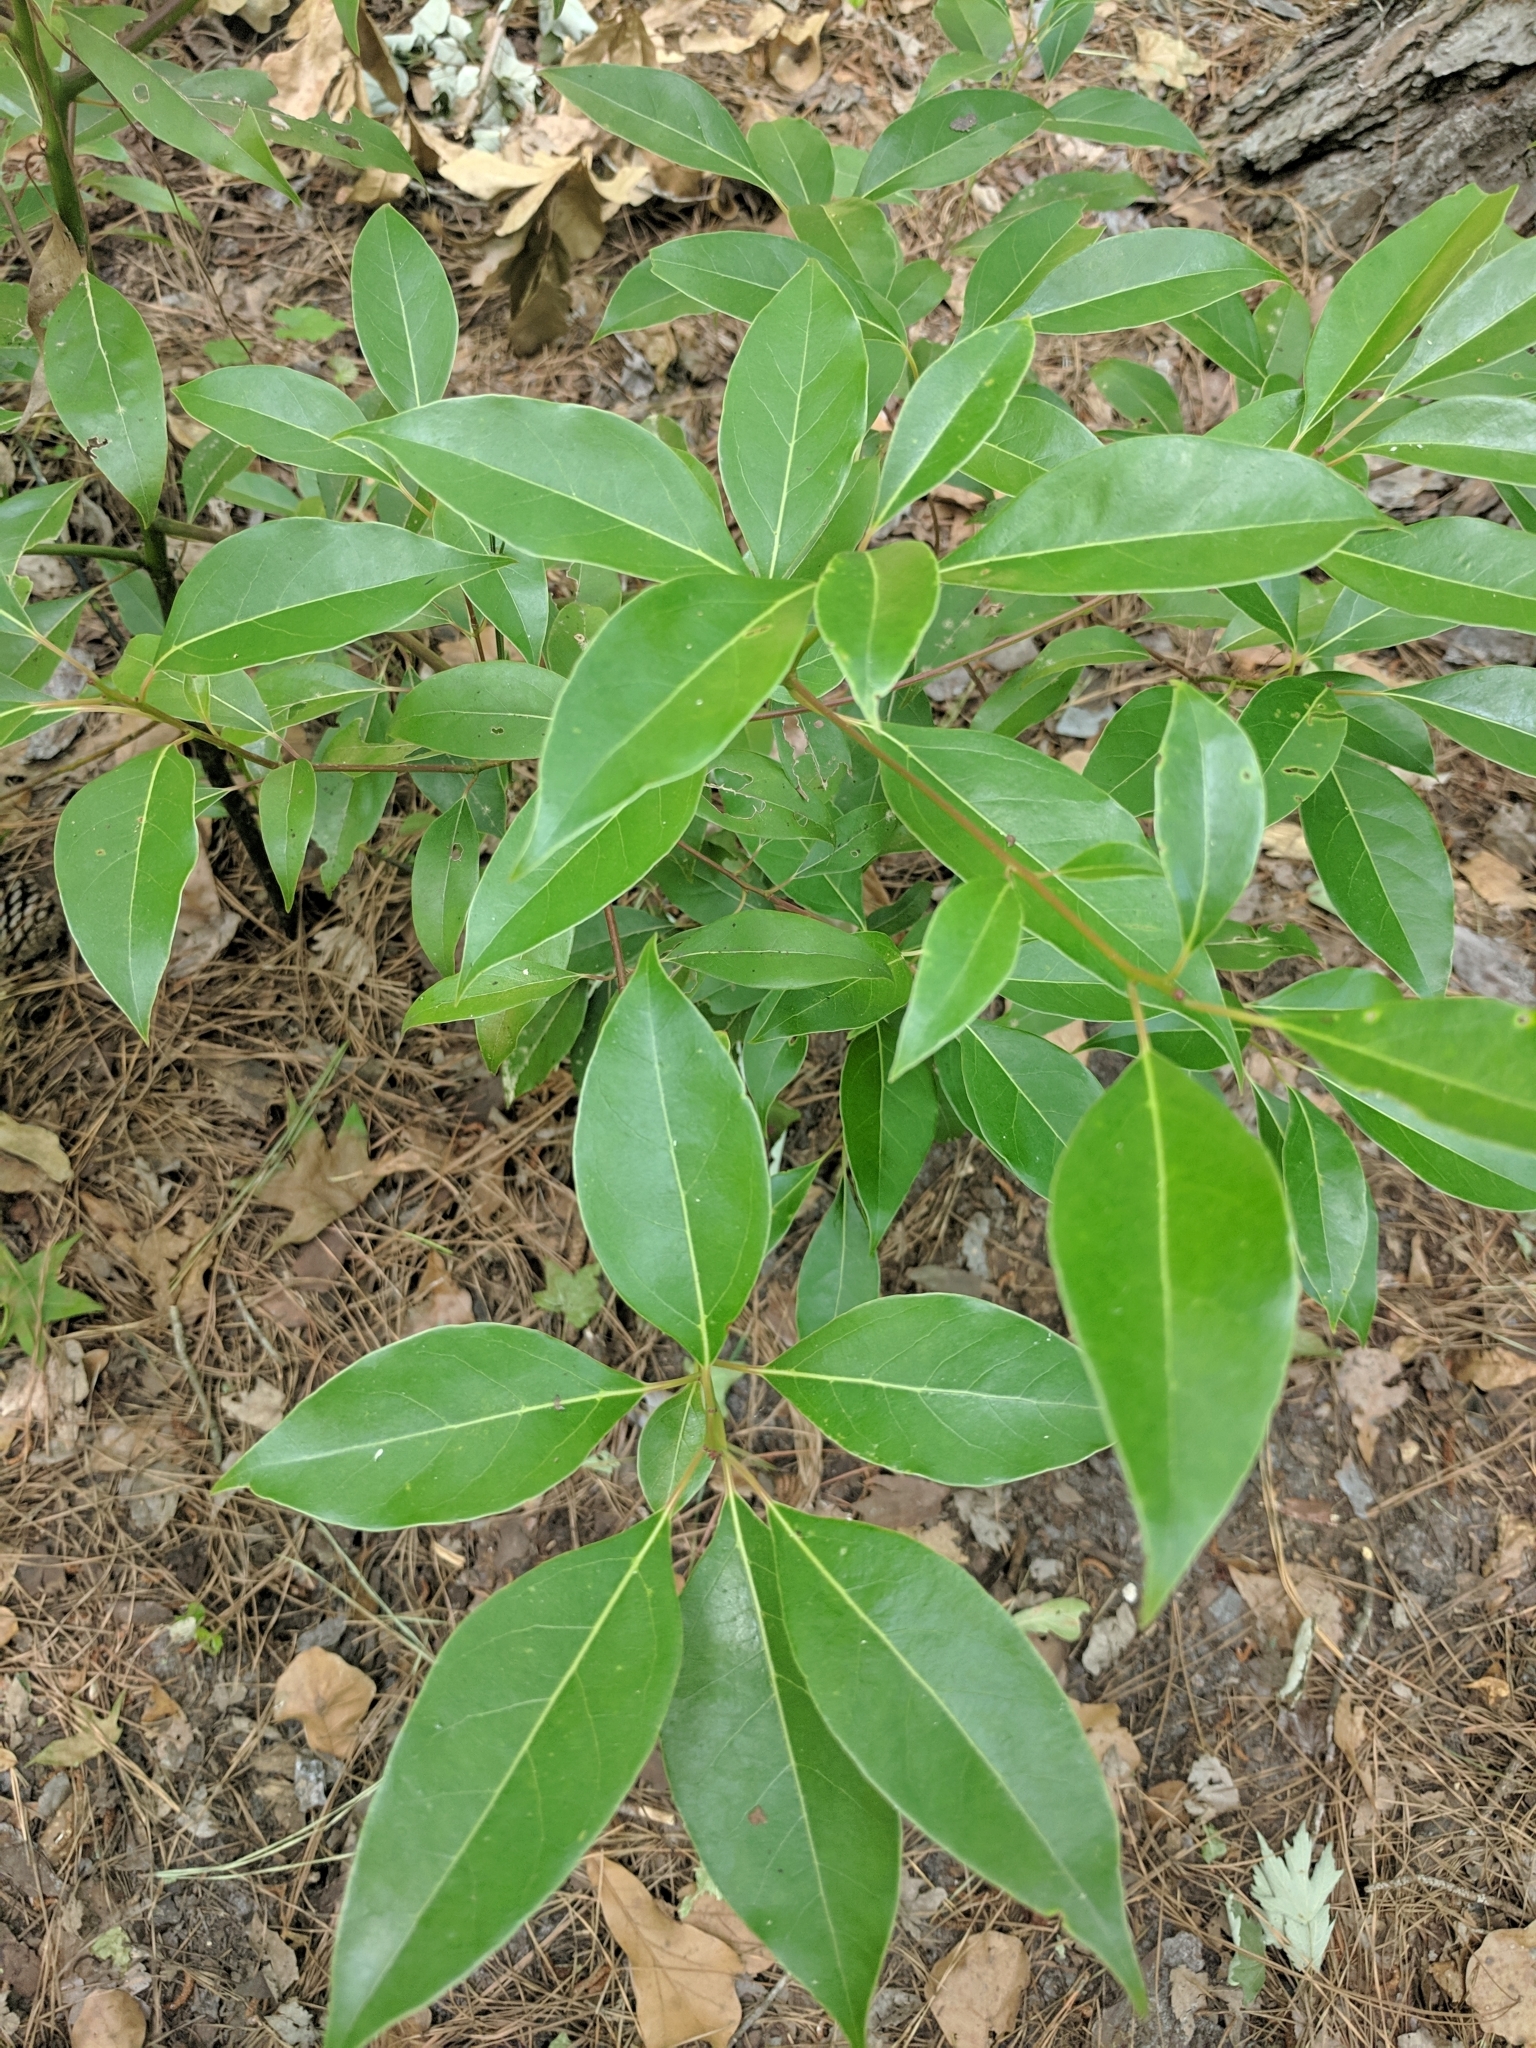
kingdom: Plantae
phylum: Tracheophyta
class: Magnoliopsida
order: Laurales
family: Lauraceae
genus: Cinnamomum
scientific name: Cinnamomum camphora
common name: Camphortree
